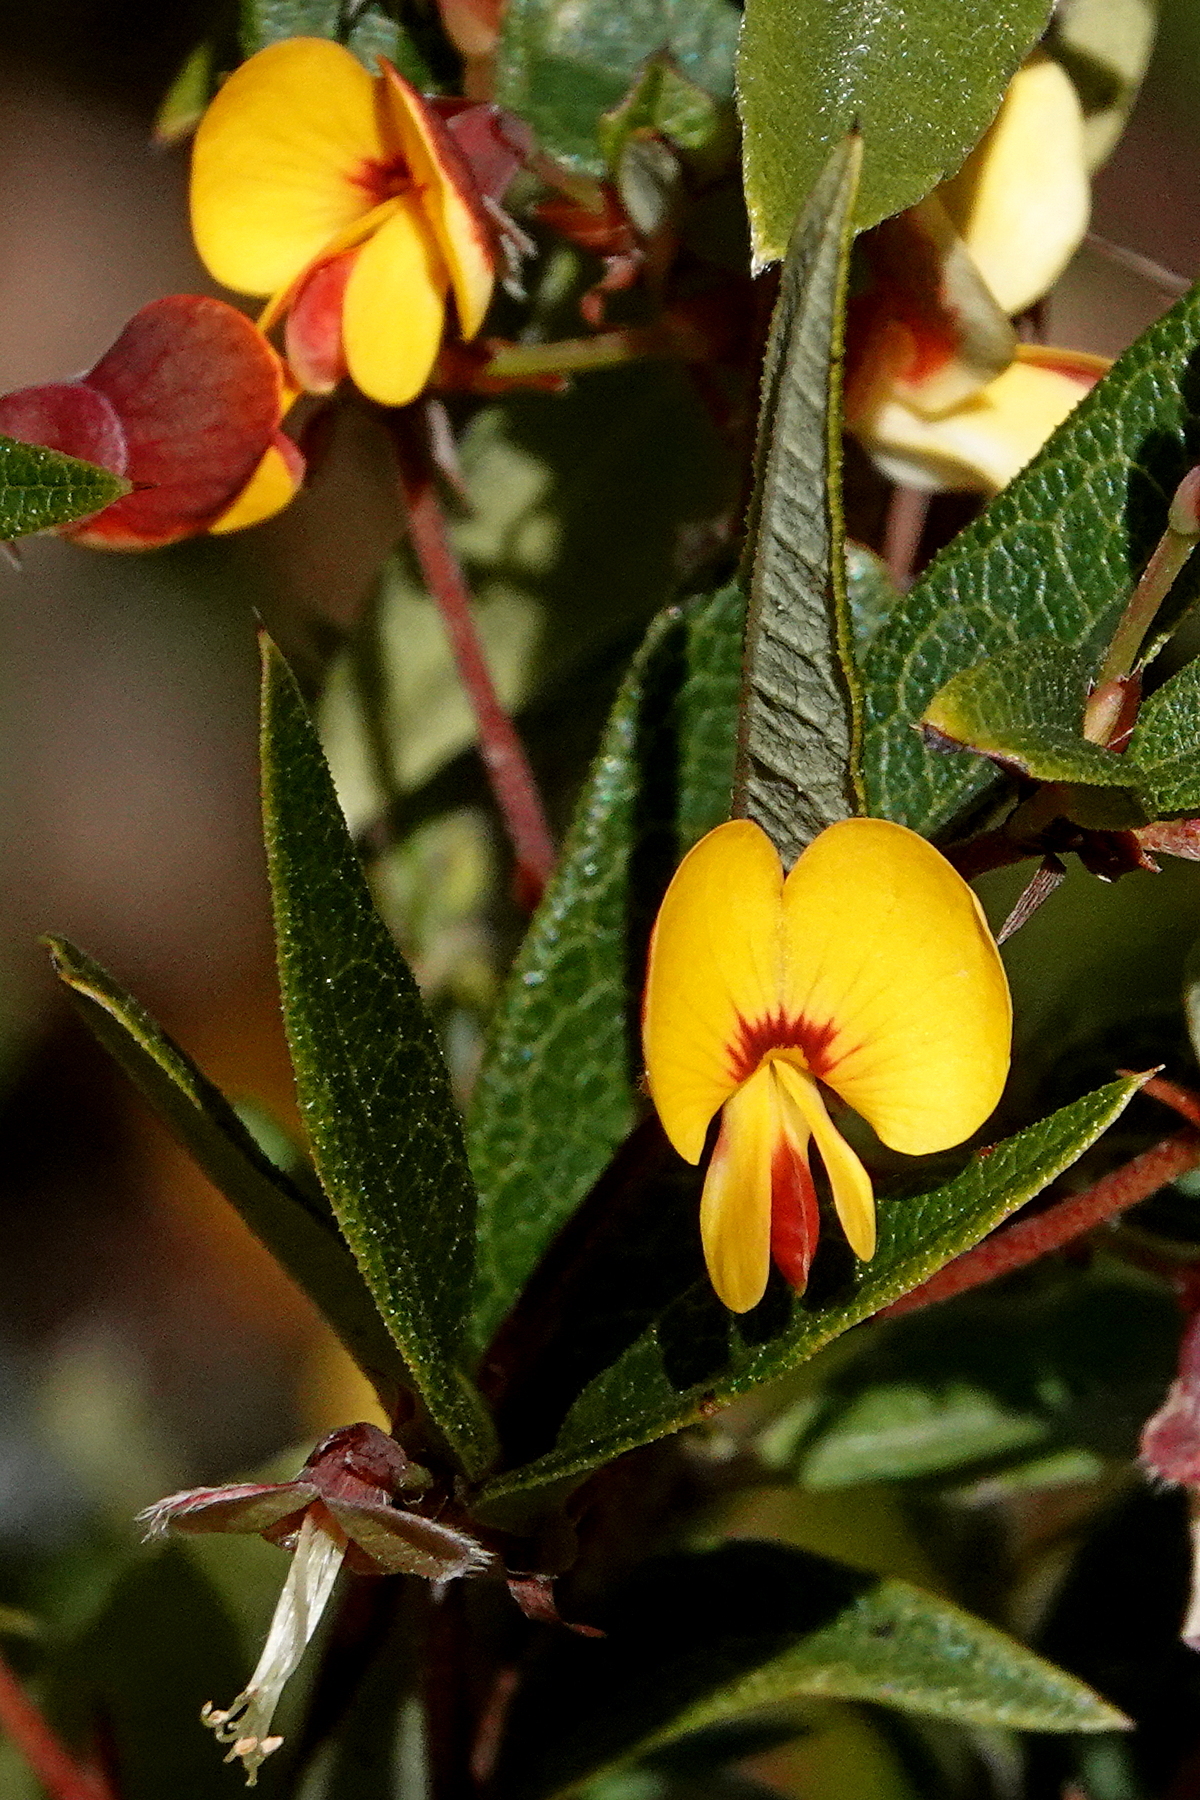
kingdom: Plantae
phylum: Tracheophyta
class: Magnoliopsida
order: Fabales
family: Fabaceae
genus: Platylobium
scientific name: Platylobium parviflorum
